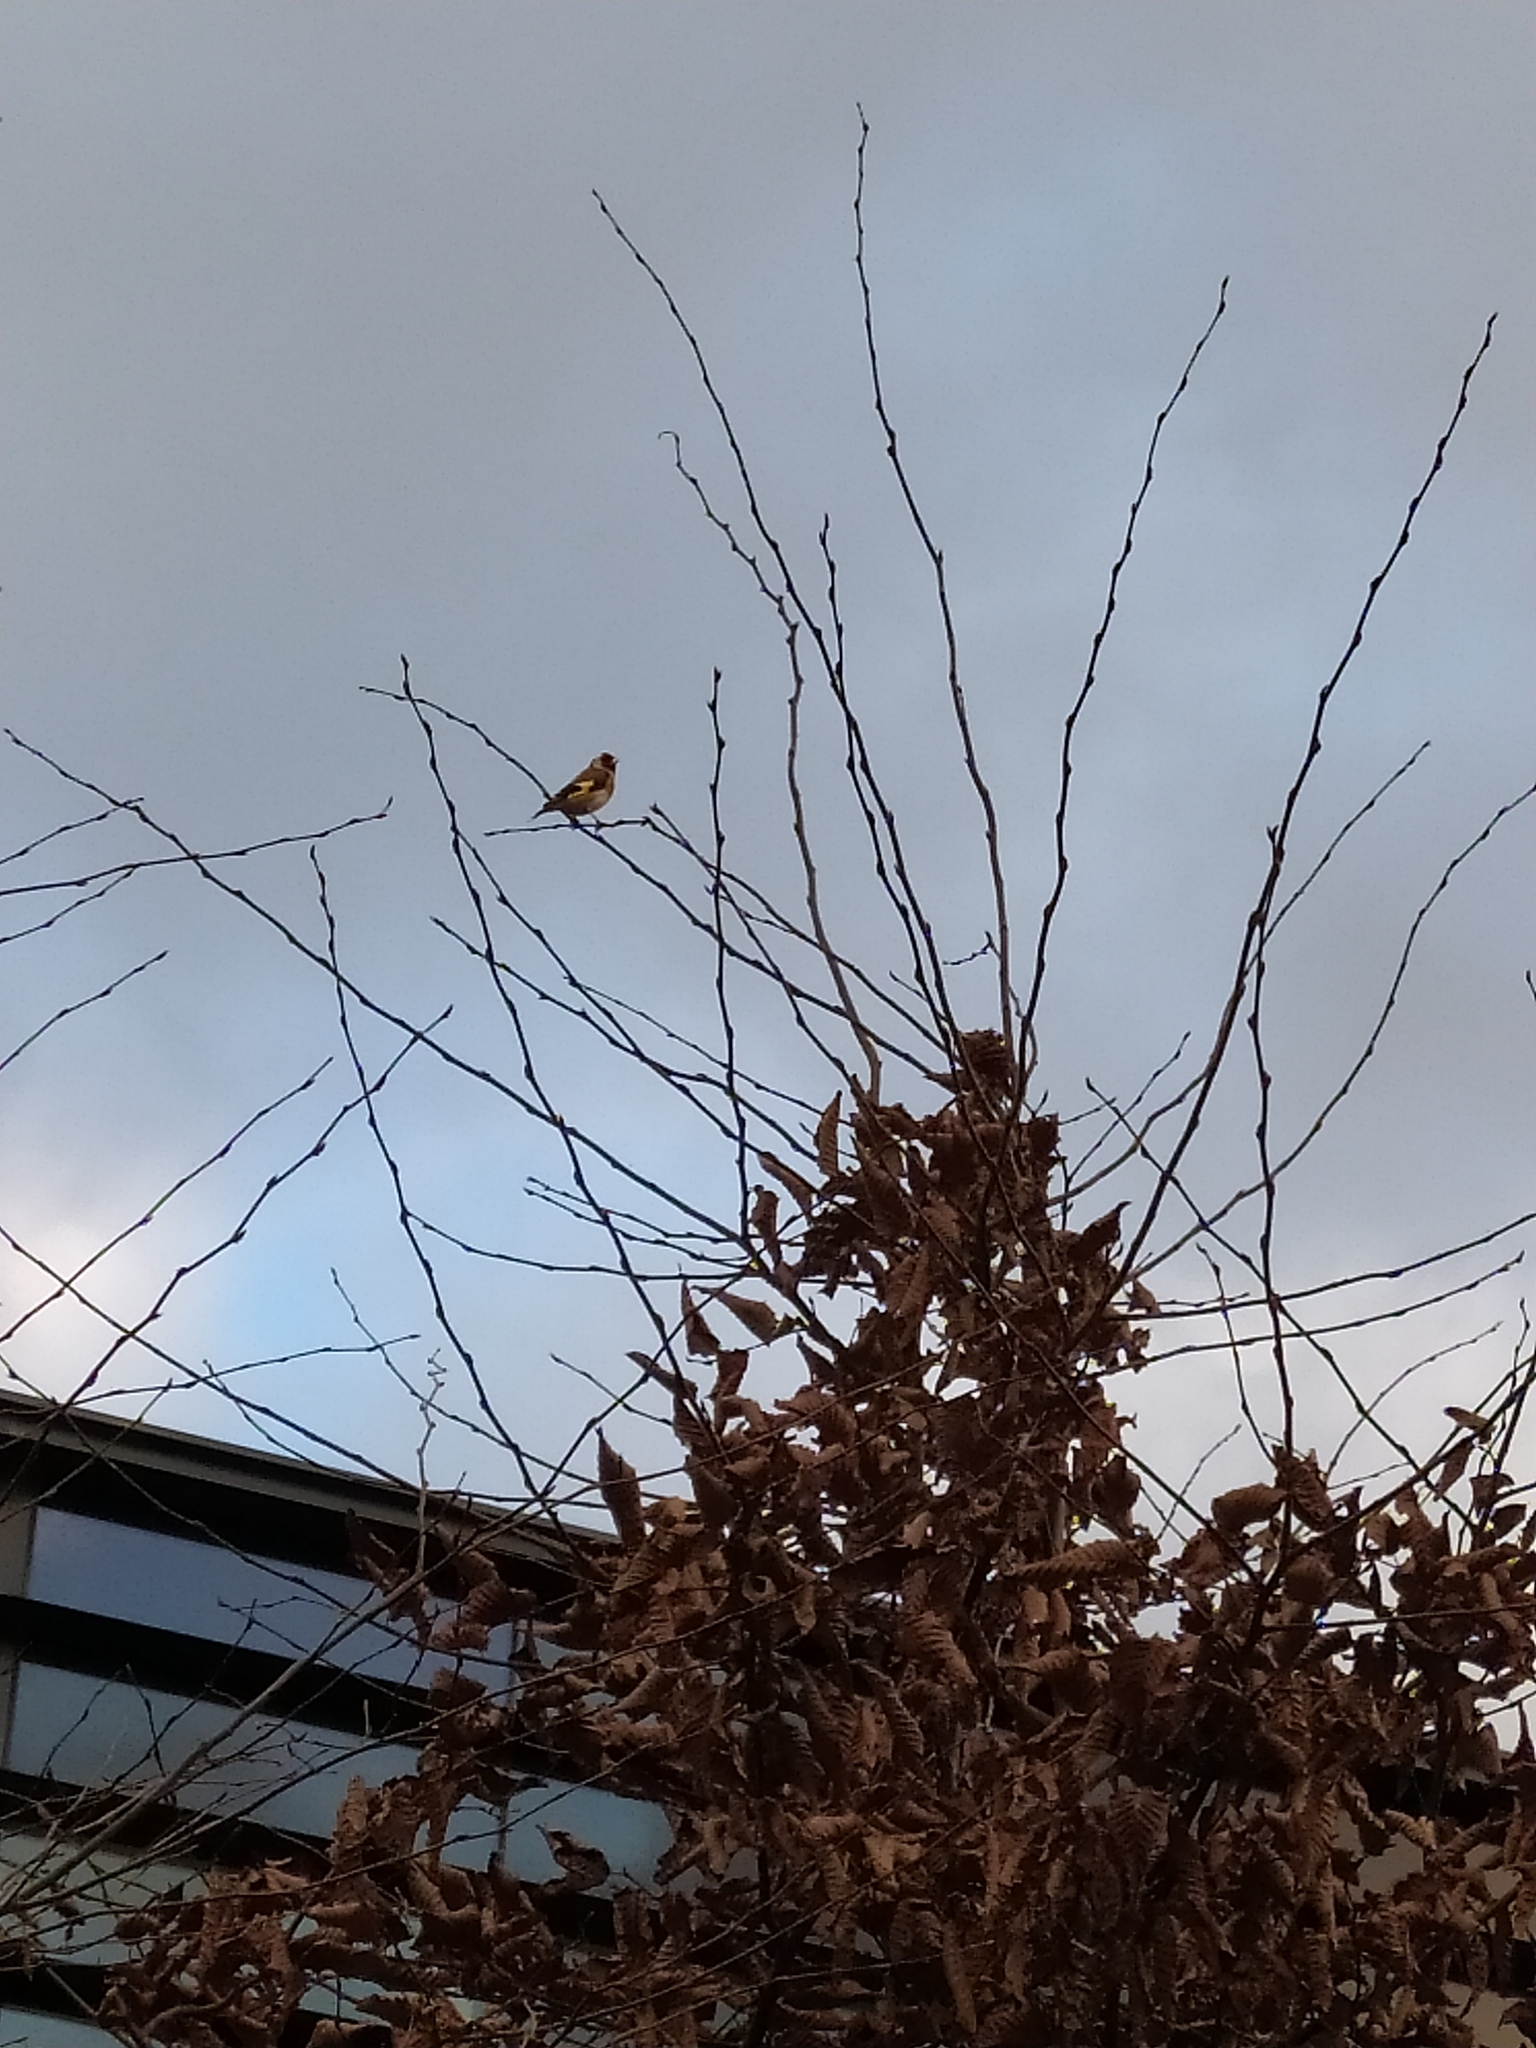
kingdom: Animalia
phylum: Chordata
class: Aves
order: Passeriformes
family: Fringillidae
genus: Carduelis
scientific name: Carduelis carduelis
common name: European goldfinch
